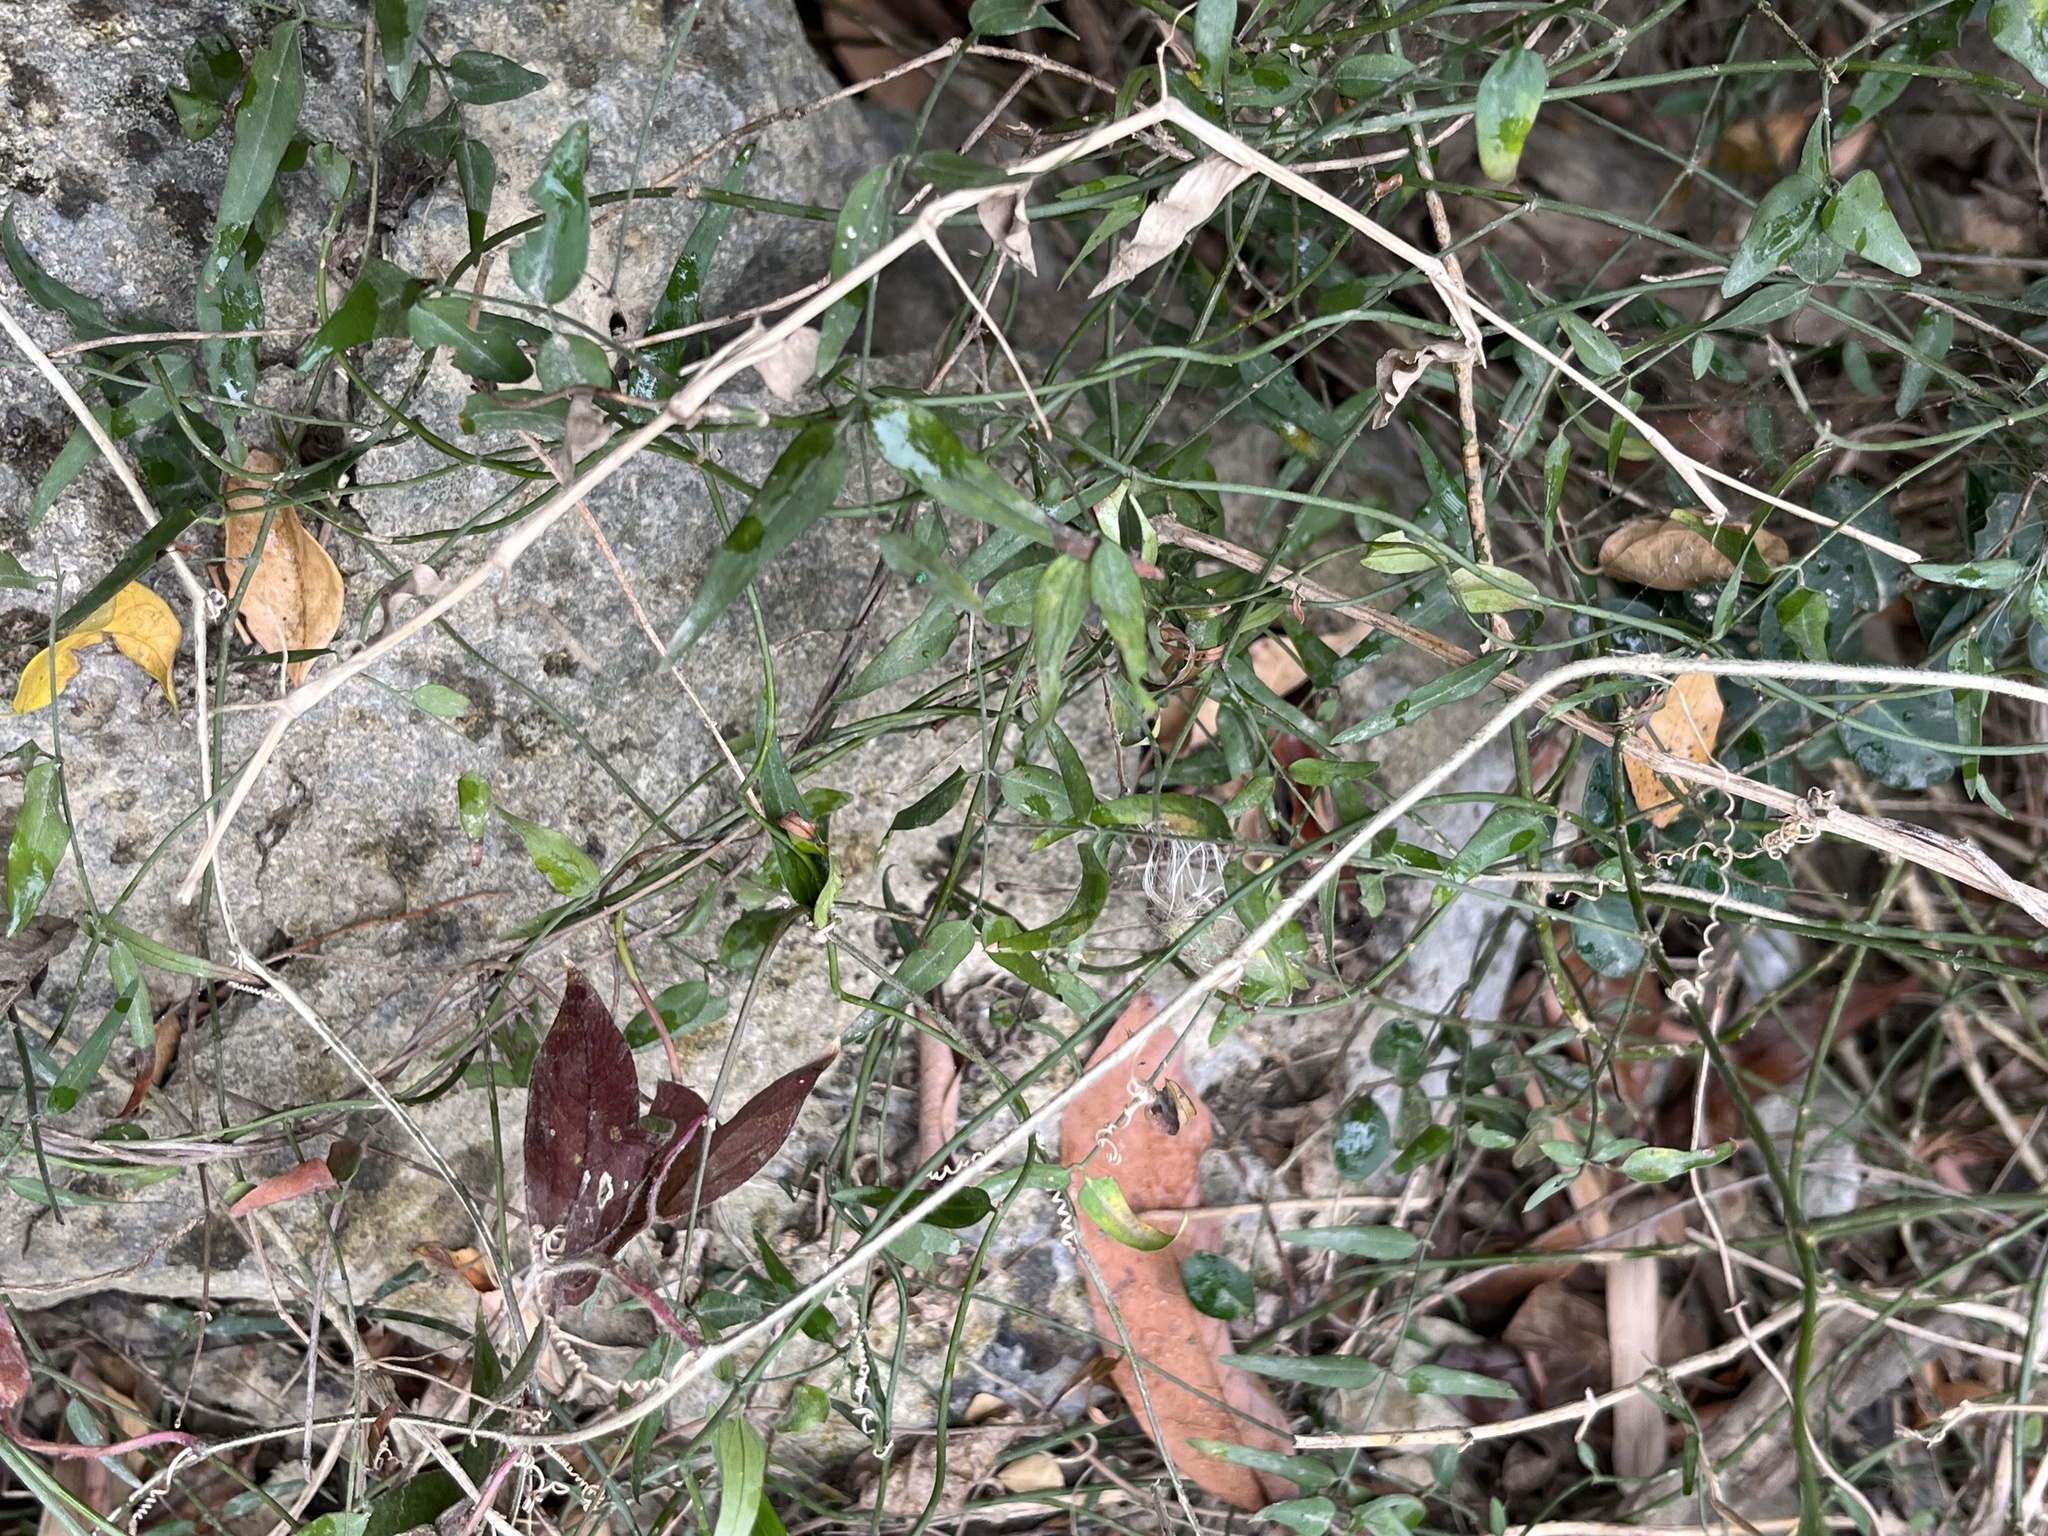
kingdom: Plantae
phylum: Tracheophyta
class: Magnoliopsida
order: Lamiales
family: Oleaceae
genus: Jasminum
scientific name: Jasminum nervosum
